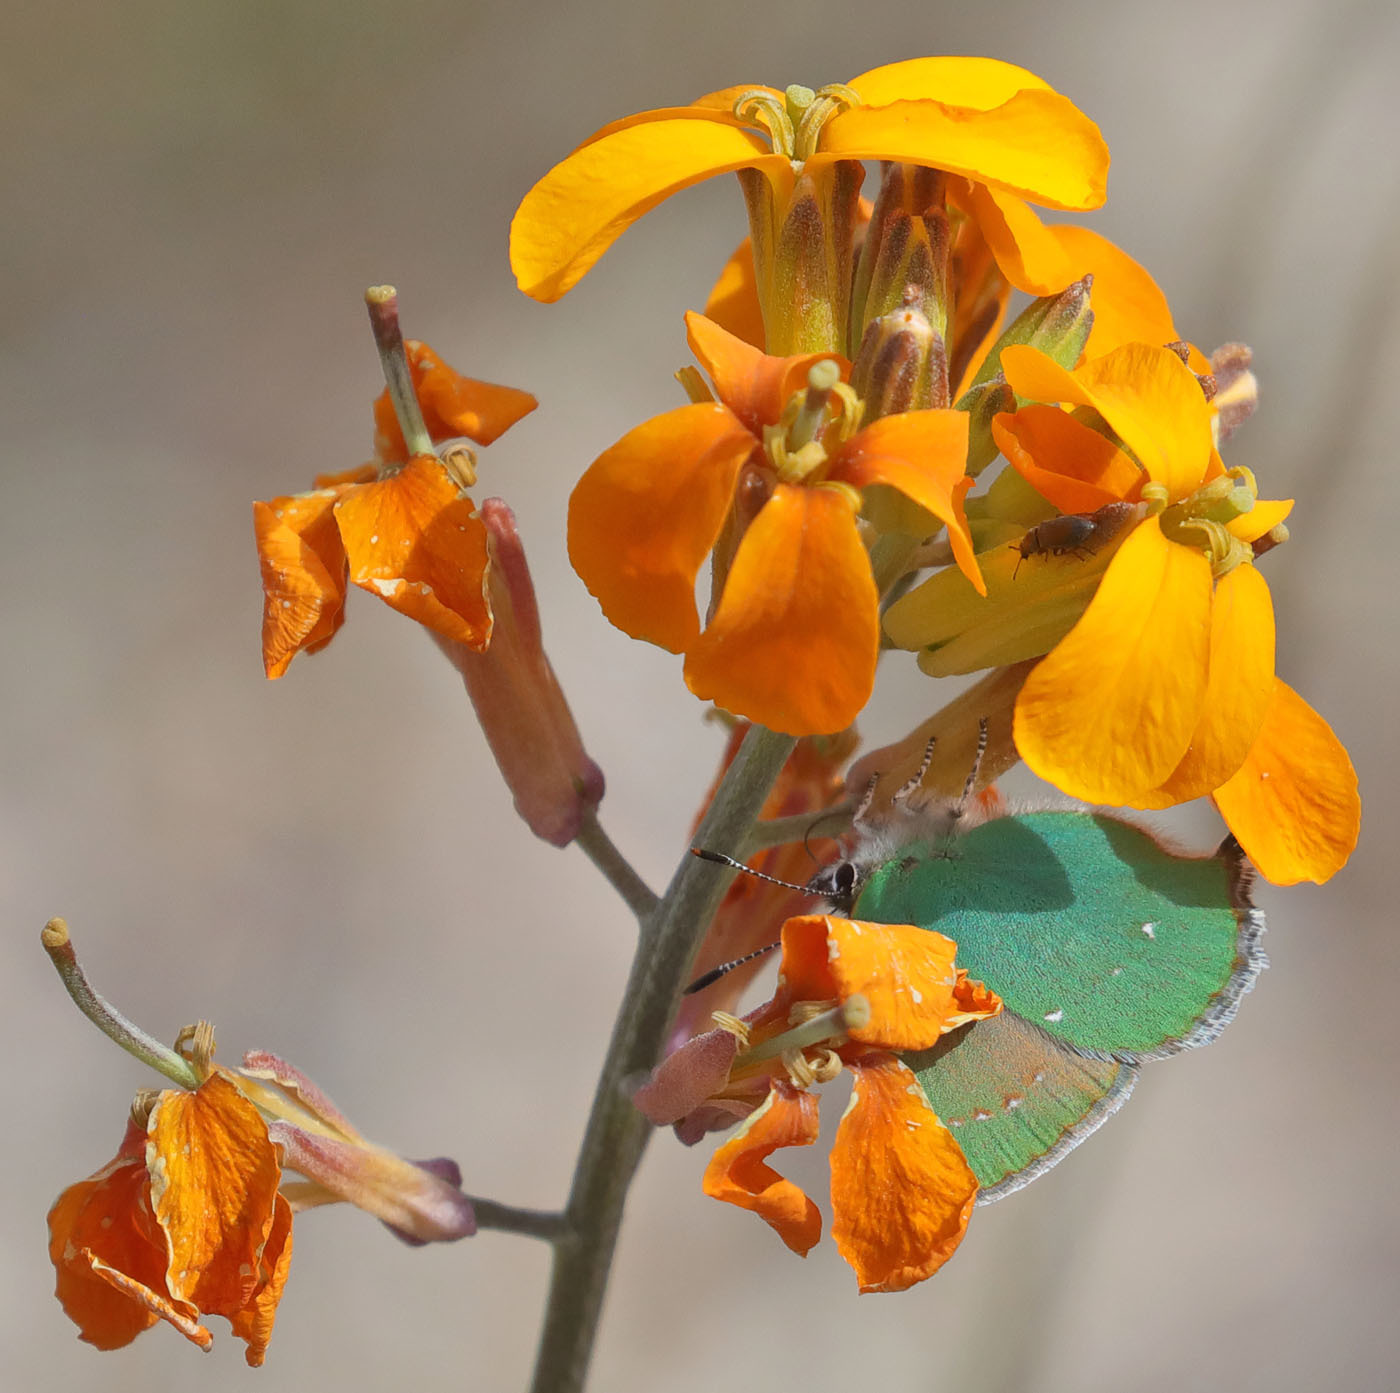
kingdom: Animalia
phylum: Arthropoda
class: Insecta
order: Lepidoptera
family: Lycaenidae
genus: Callophrys
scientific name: Callophrys dumetorum
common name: Bramble hairstreak
